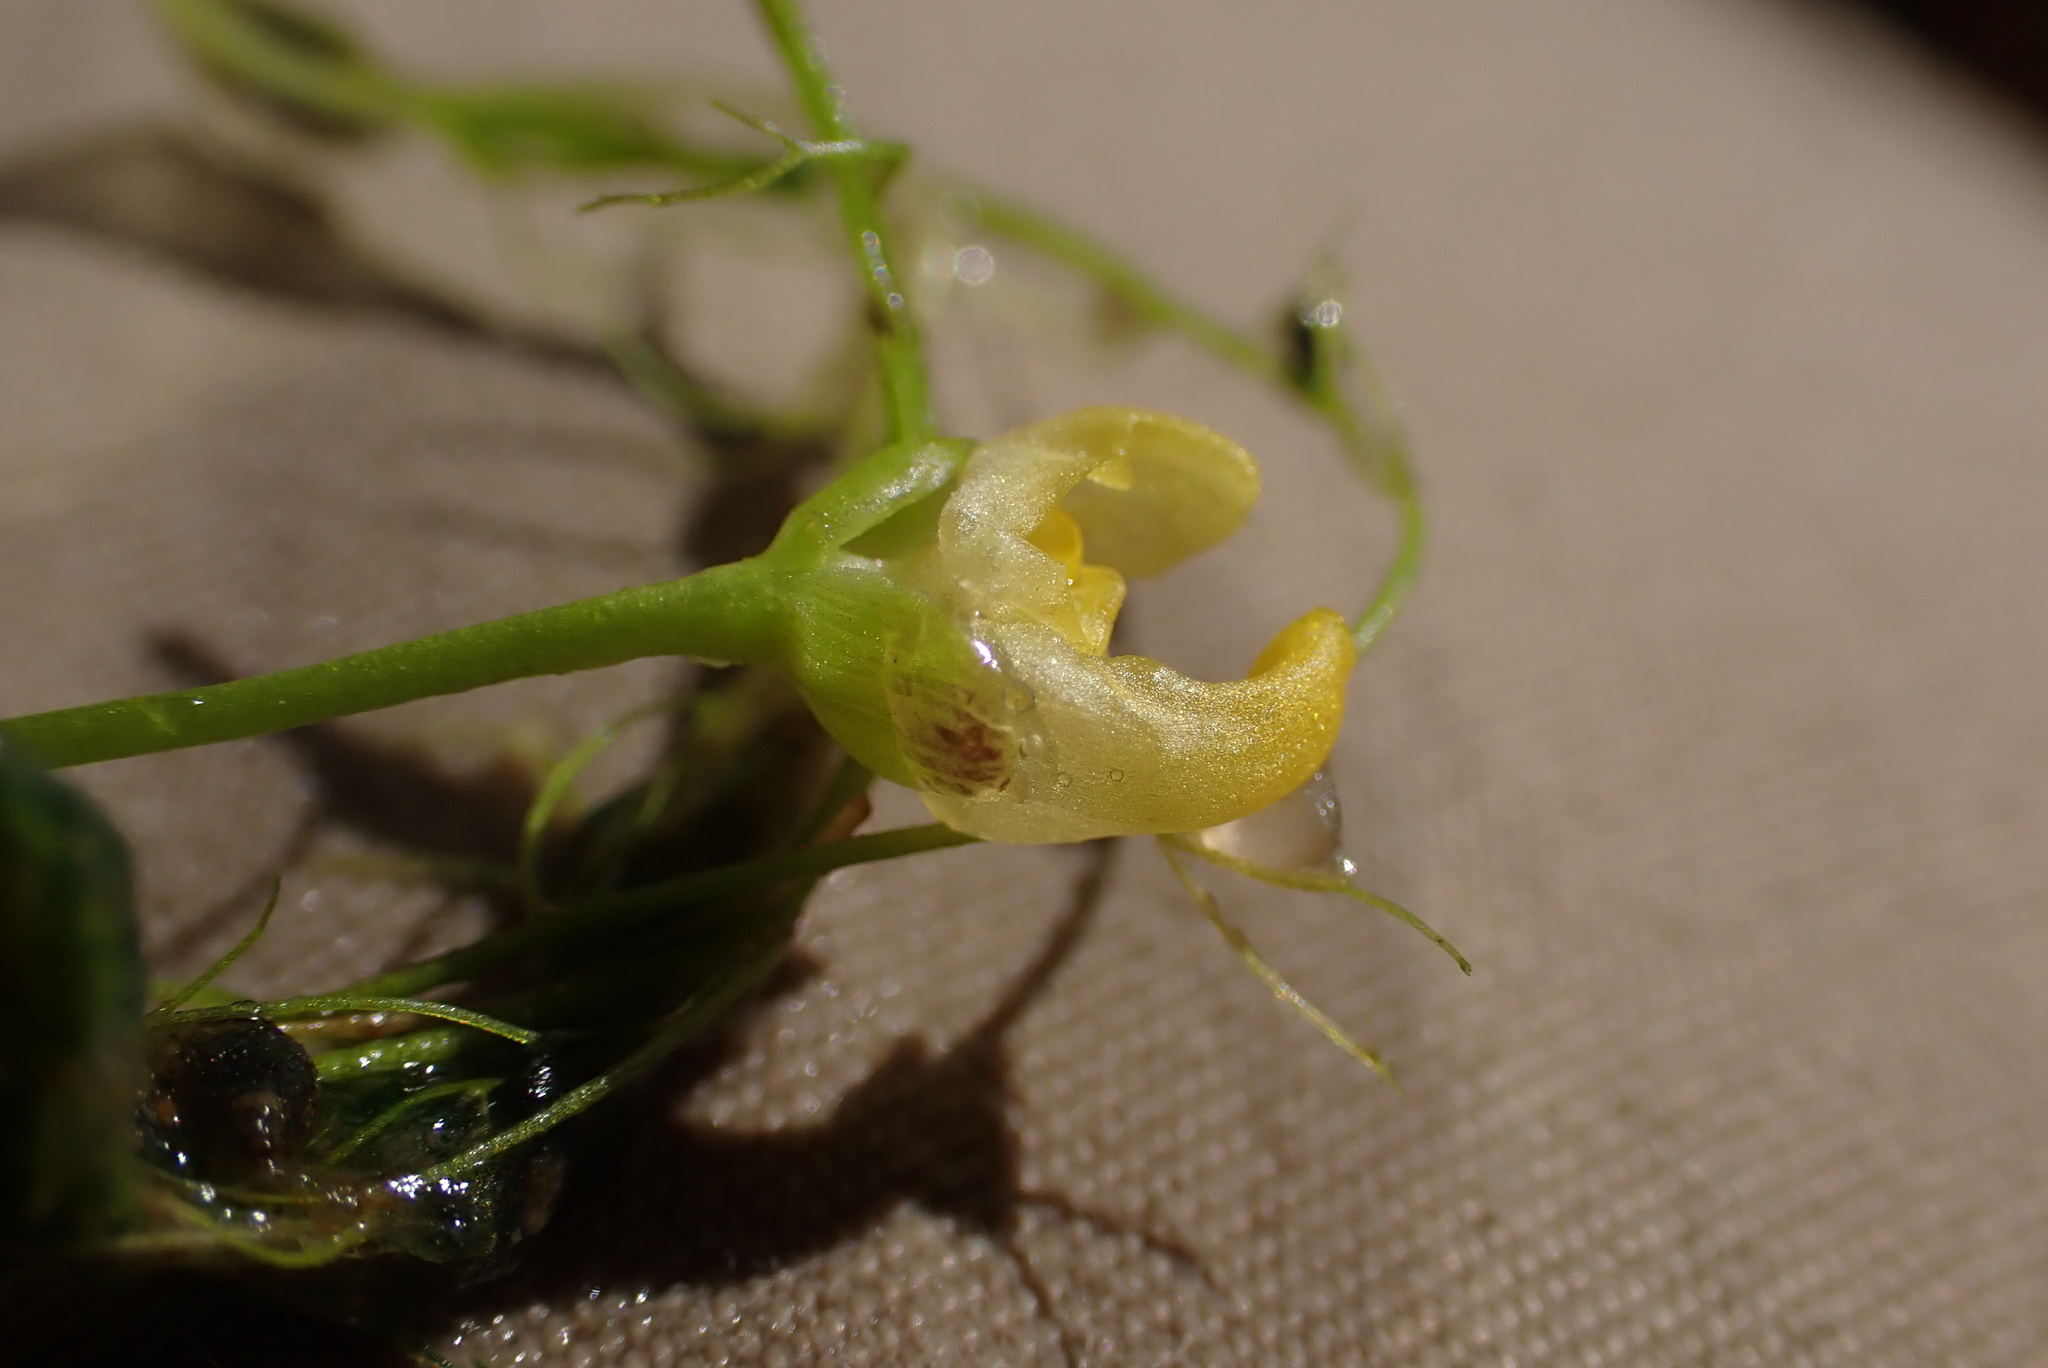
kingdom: Plantae
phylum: Tracheophyta
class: Magnoliopsida
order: Lamiales
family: Lentibulariaceae
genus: Utricularia
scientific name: Utricularia gibba
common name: Humped bladderwort
